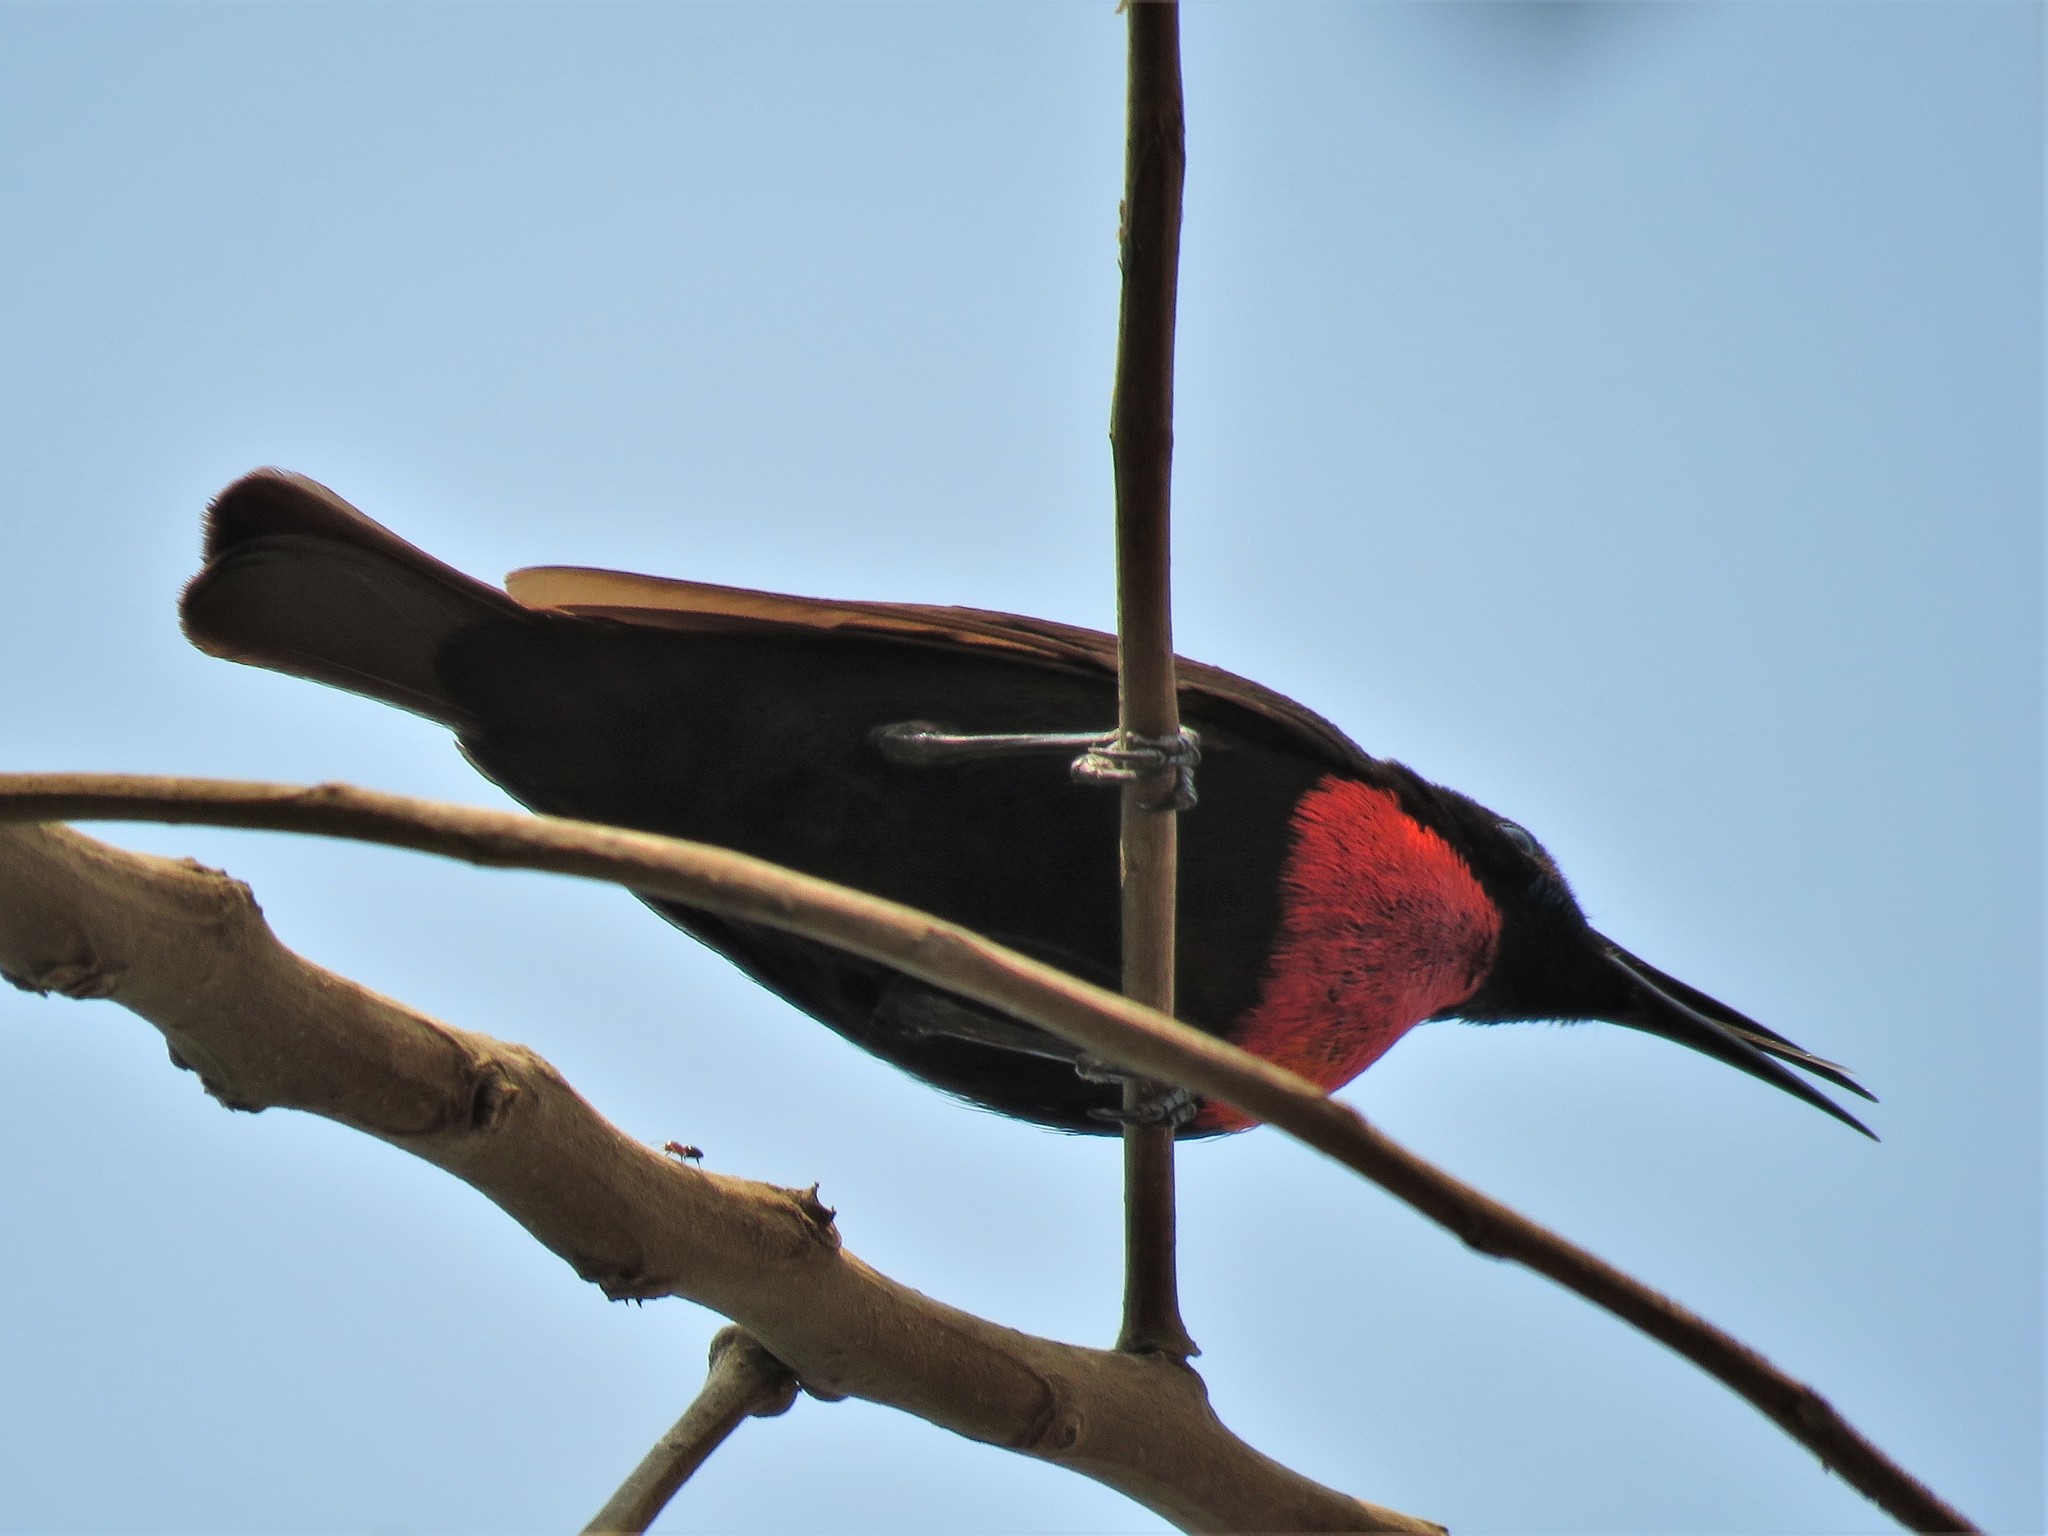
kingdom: Animalia
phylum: Chordata
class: Aves
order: Passeriformes
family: Nectariniidae
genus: Chalcomitra
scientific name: Chalcomitra senegalensis
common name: Scarlet-chested sunbird
